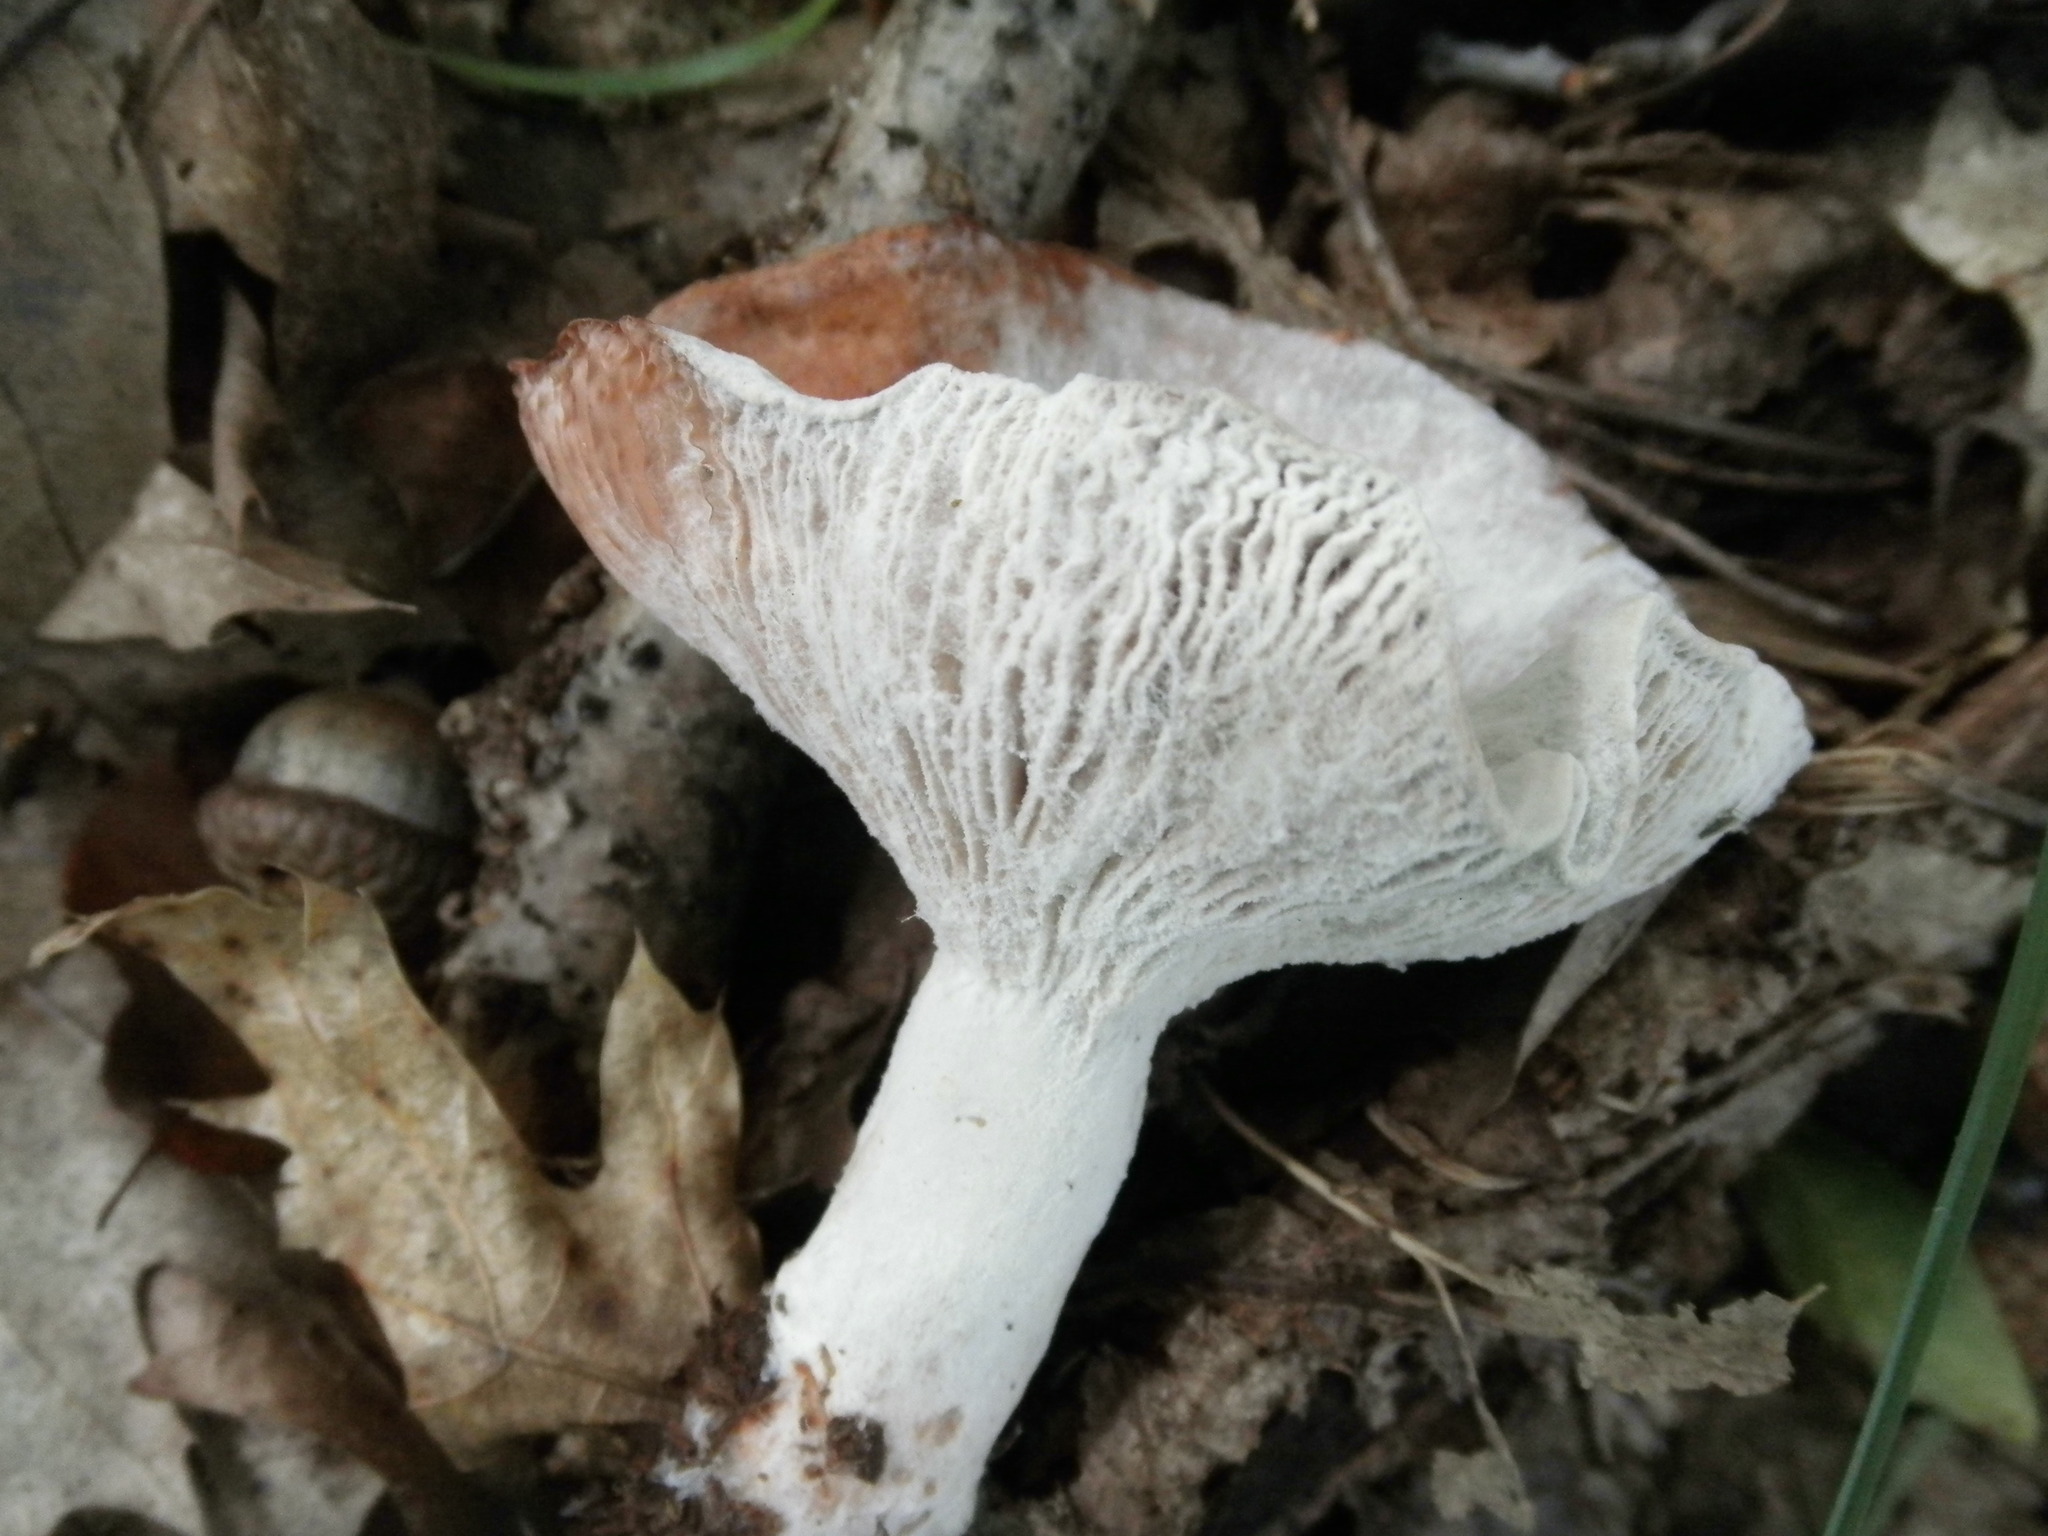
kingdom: Fungi
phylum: Ascomycota
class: Sordariomycetes
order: Hypocreales
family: Hypocreaceae
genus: Hypomyces
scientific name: Hypomyces ochraceus
